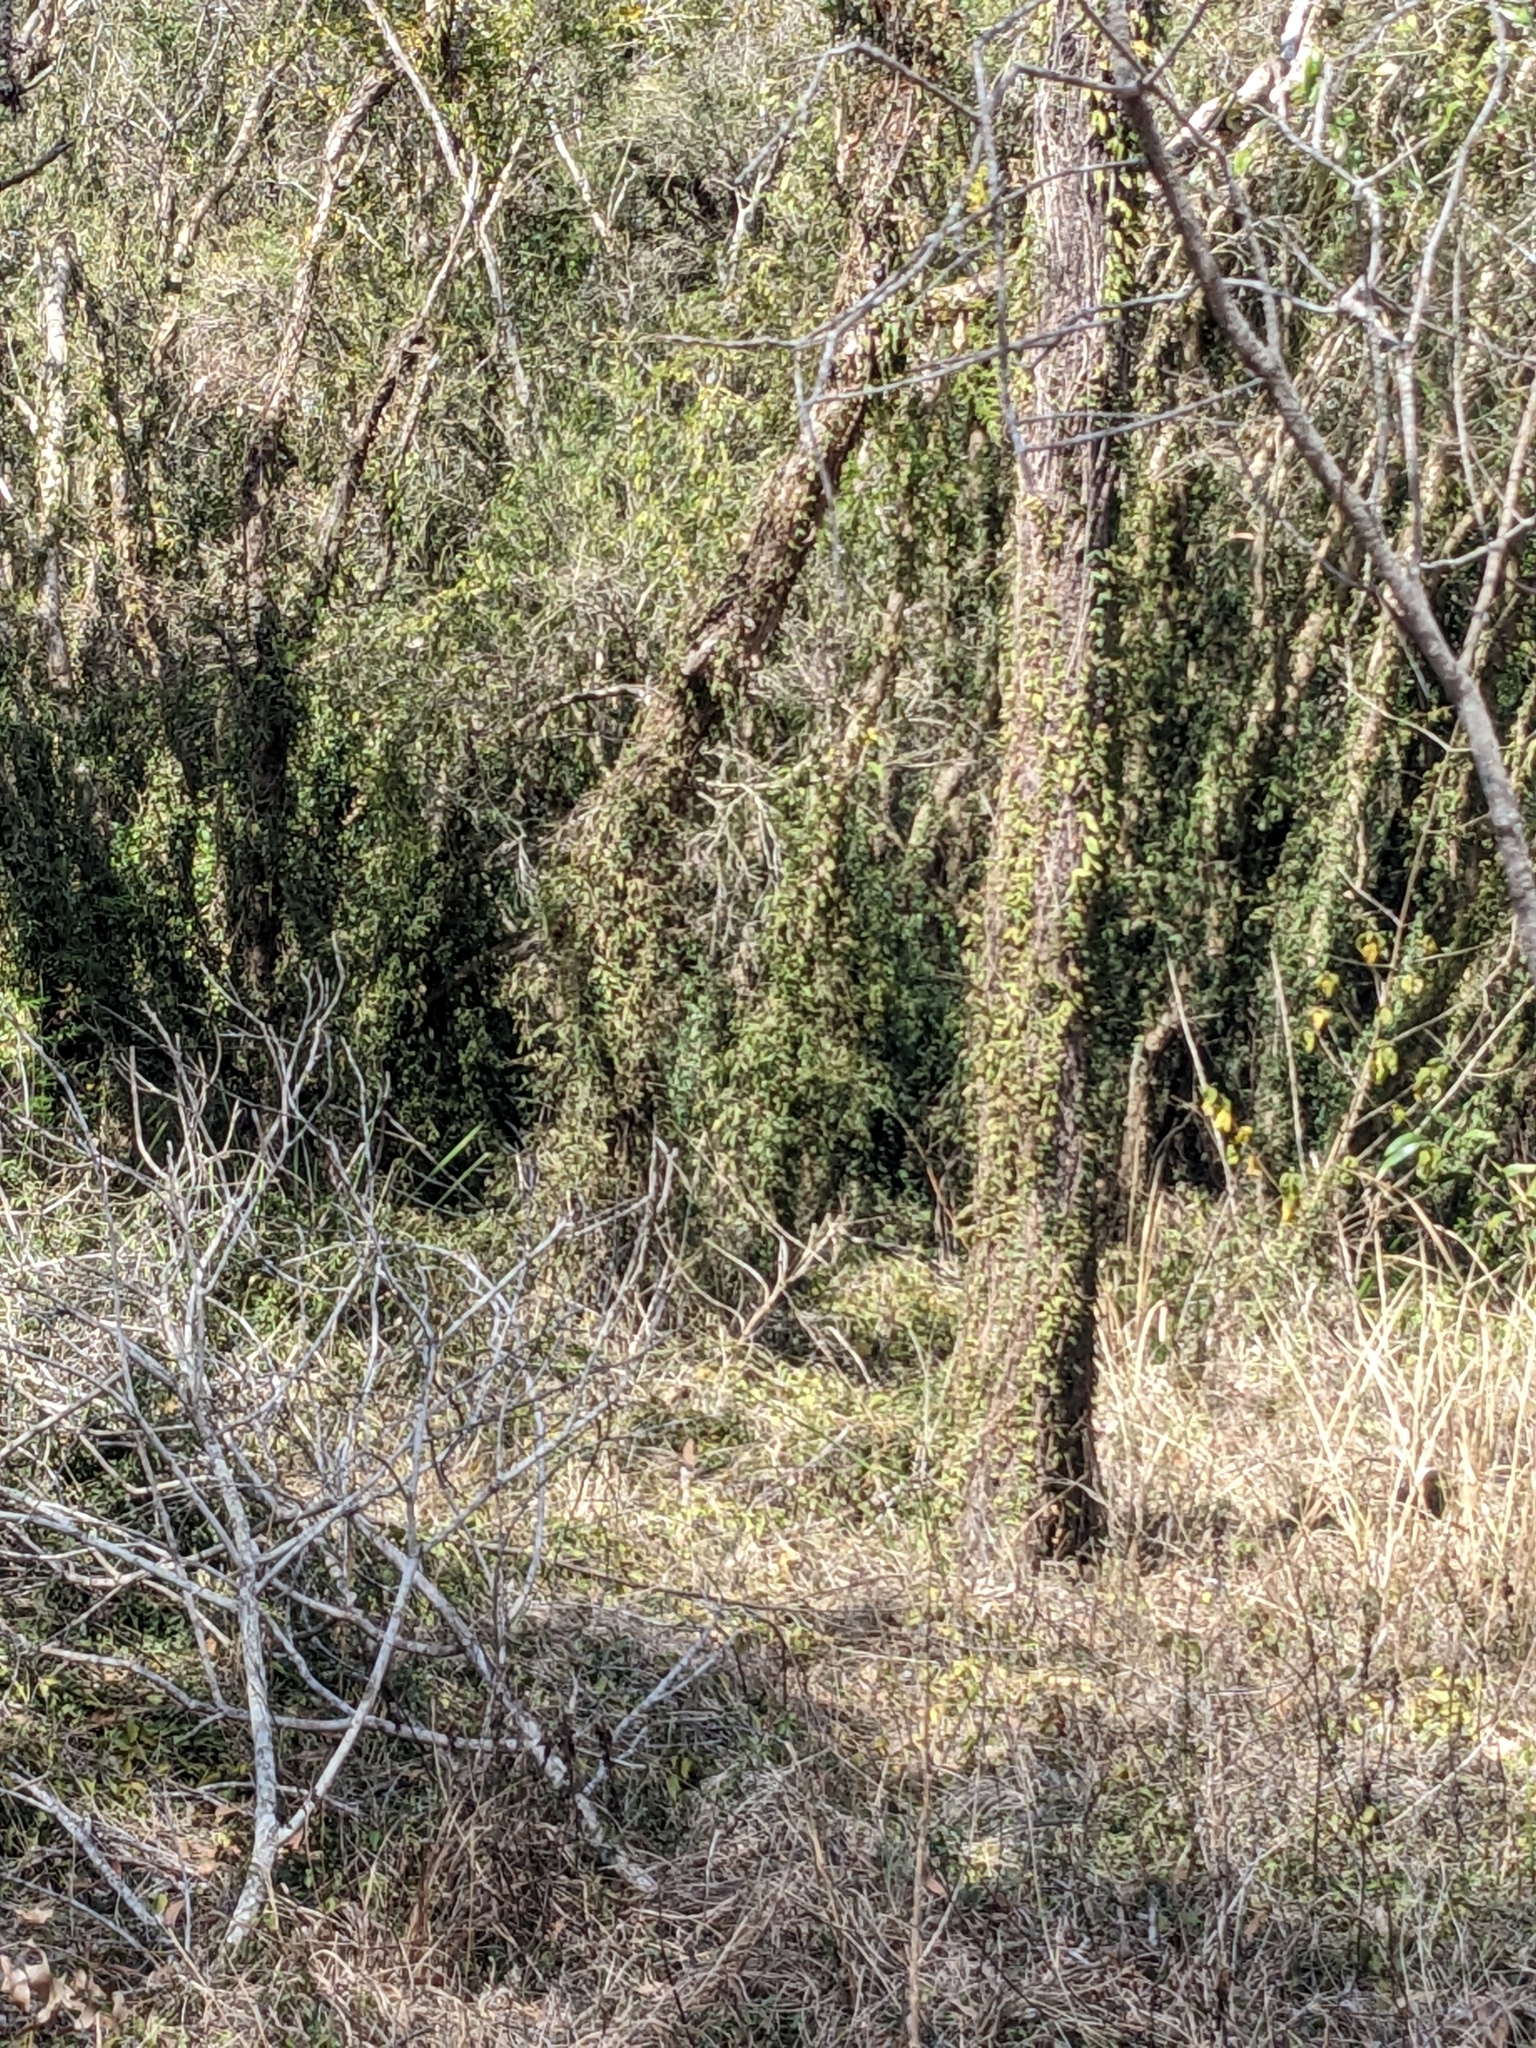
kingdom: Plantae
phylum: Tracheophyta
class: Magnoliopsida
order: Lamiales
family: Bignoniaceae
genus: Dolichandra
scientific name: Dolichandra unguis-cati
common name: Catclaw vine
